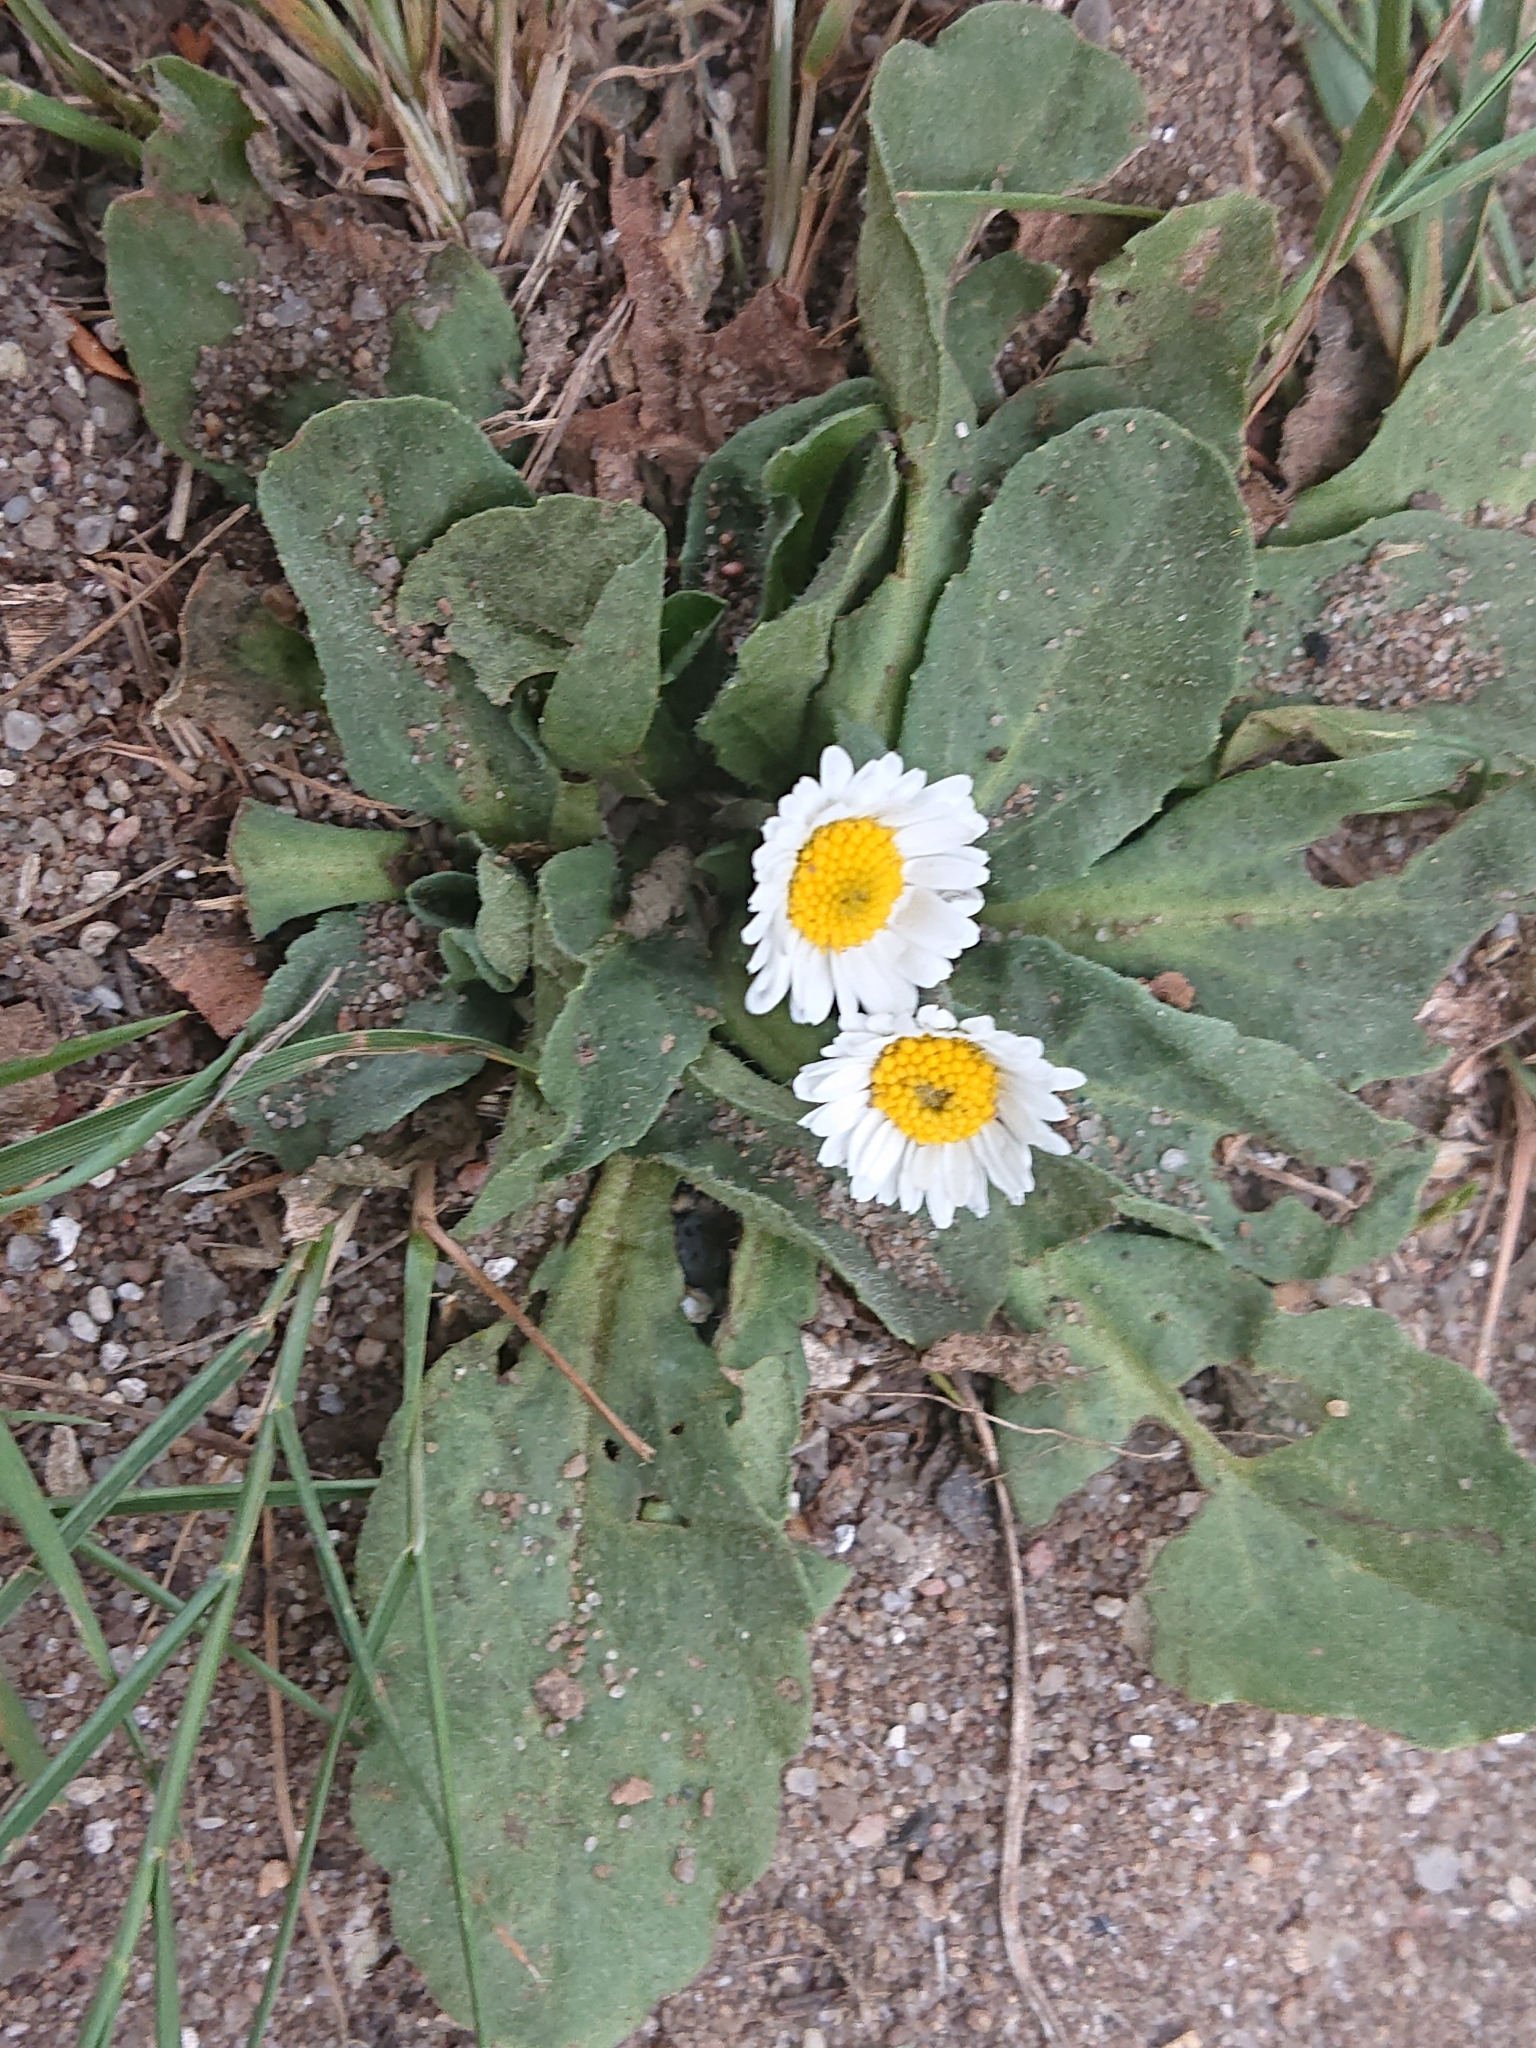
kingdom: Plantae
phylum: Tracheophyta
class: Magnoliopsida
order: Asterales
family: Asteraceae
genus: Bellis
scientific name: Bellis perennis
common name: Lawndaisy
